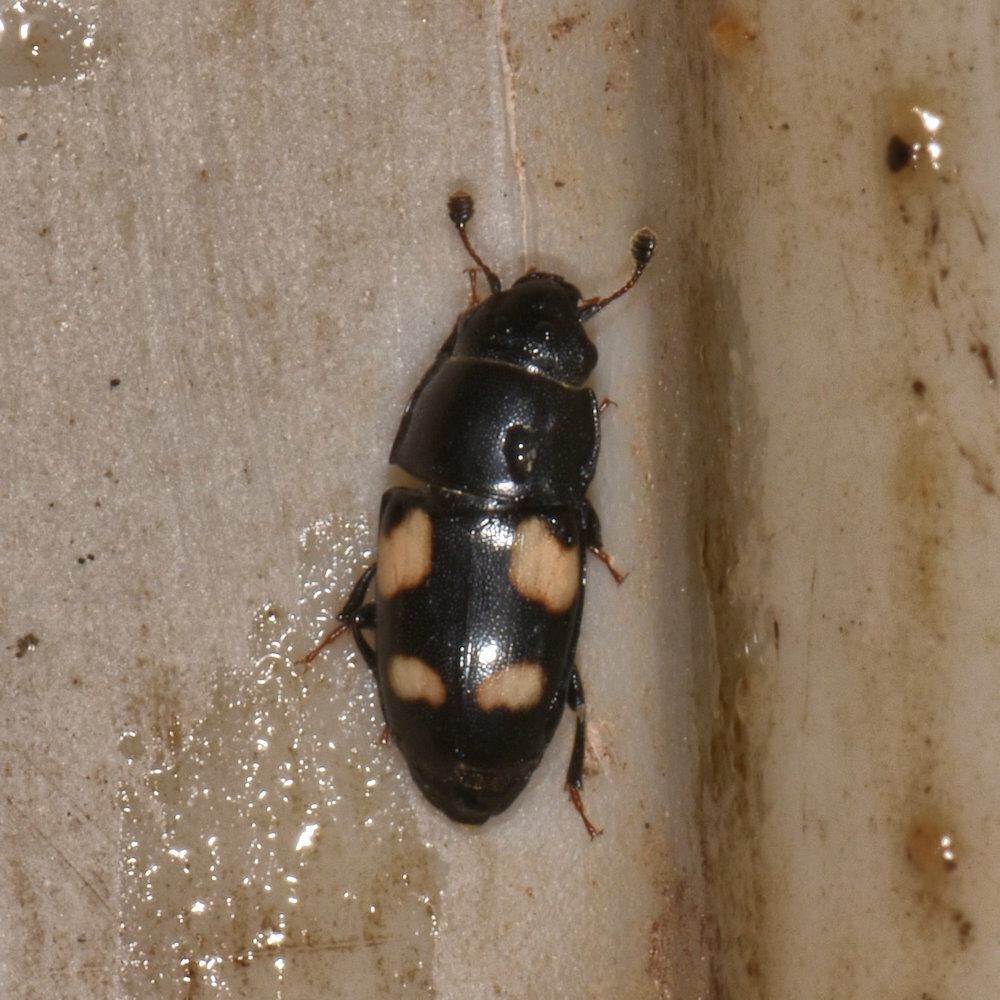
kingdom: Animalia
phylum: Arthropoda
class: Insecta
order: Coleoptera
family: Nitidulidae
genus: Glischrochilus
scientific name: Glischrochilus quadrisignatus
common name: Picnic beetle
